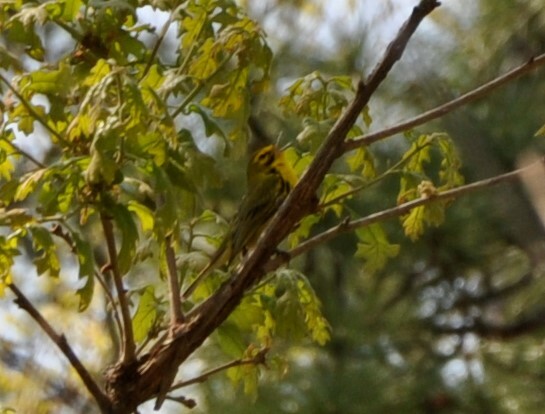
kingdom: Animalia
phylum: Chordata
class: Aves
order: Passeriformes
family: Parulidae
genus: Setophaga
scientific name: Setophaga discolor
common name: Prairie warbler
